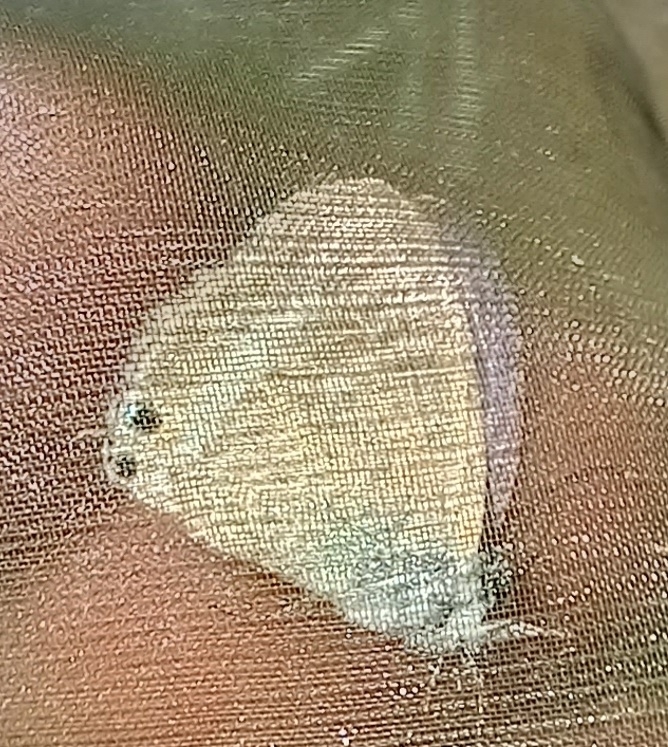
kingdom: Animalia
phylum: Arthropoda
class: Insecta
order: Lepidoptera
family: Lycaenidae
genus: Lampides
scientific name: Lampides boeticus
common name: Long-tailed blue
